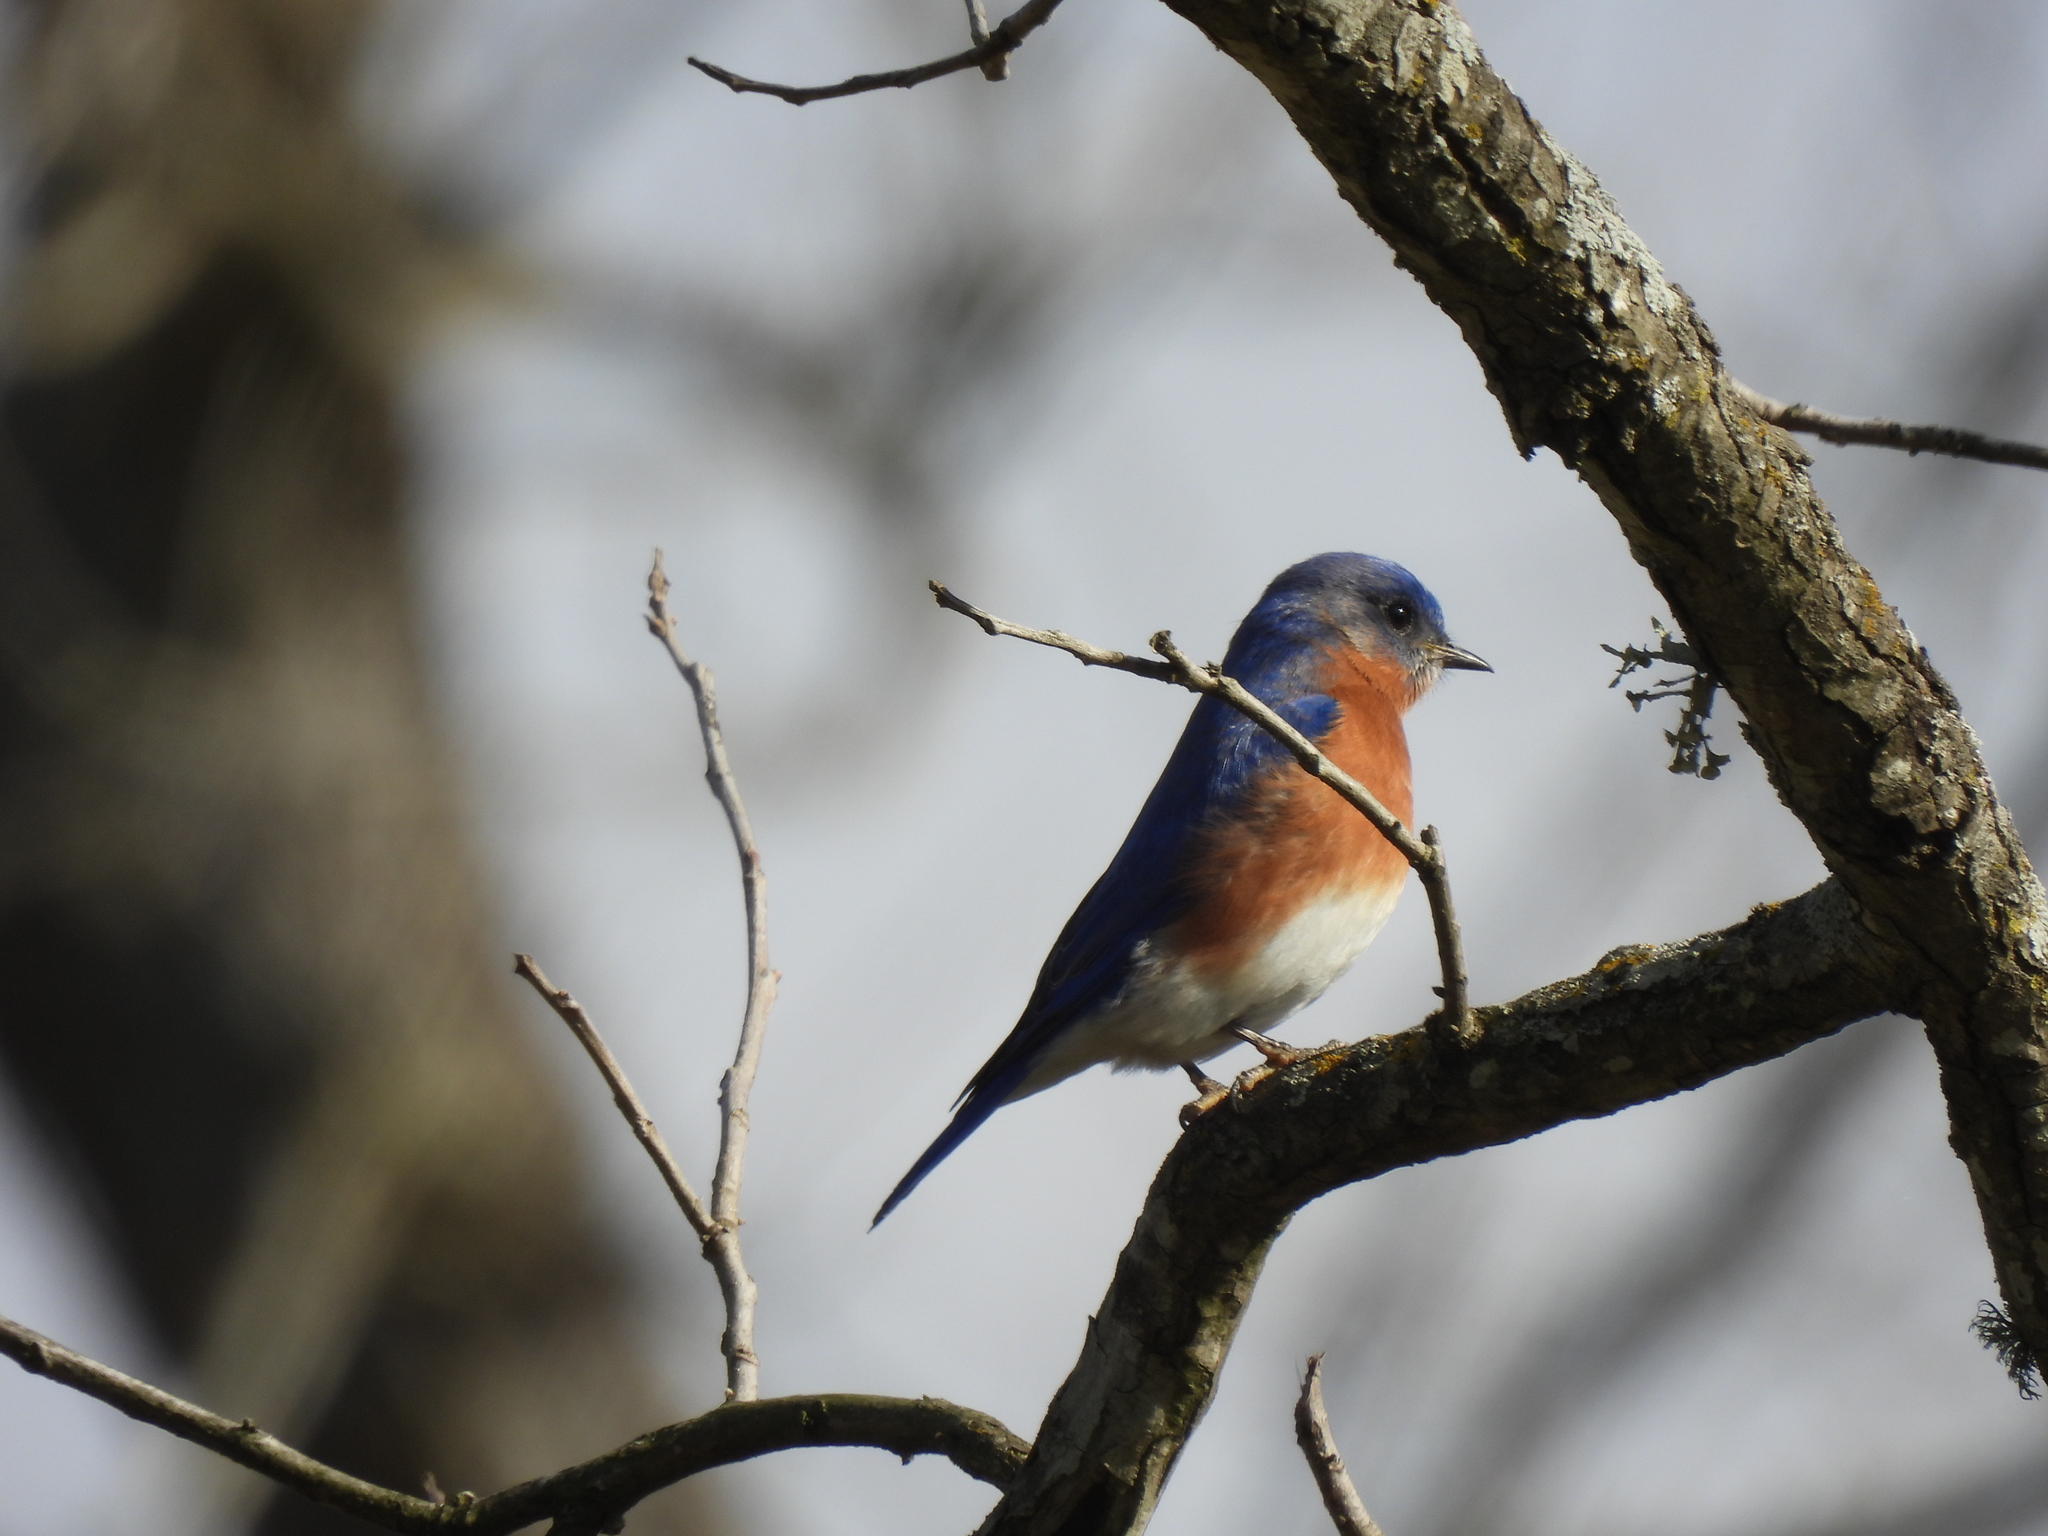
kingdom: Animalia
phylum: Chordata
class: Aves
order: Passeriformes
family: Turdidae
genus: Sialia
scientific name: Sialia sialis
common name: Eastern bluebird
